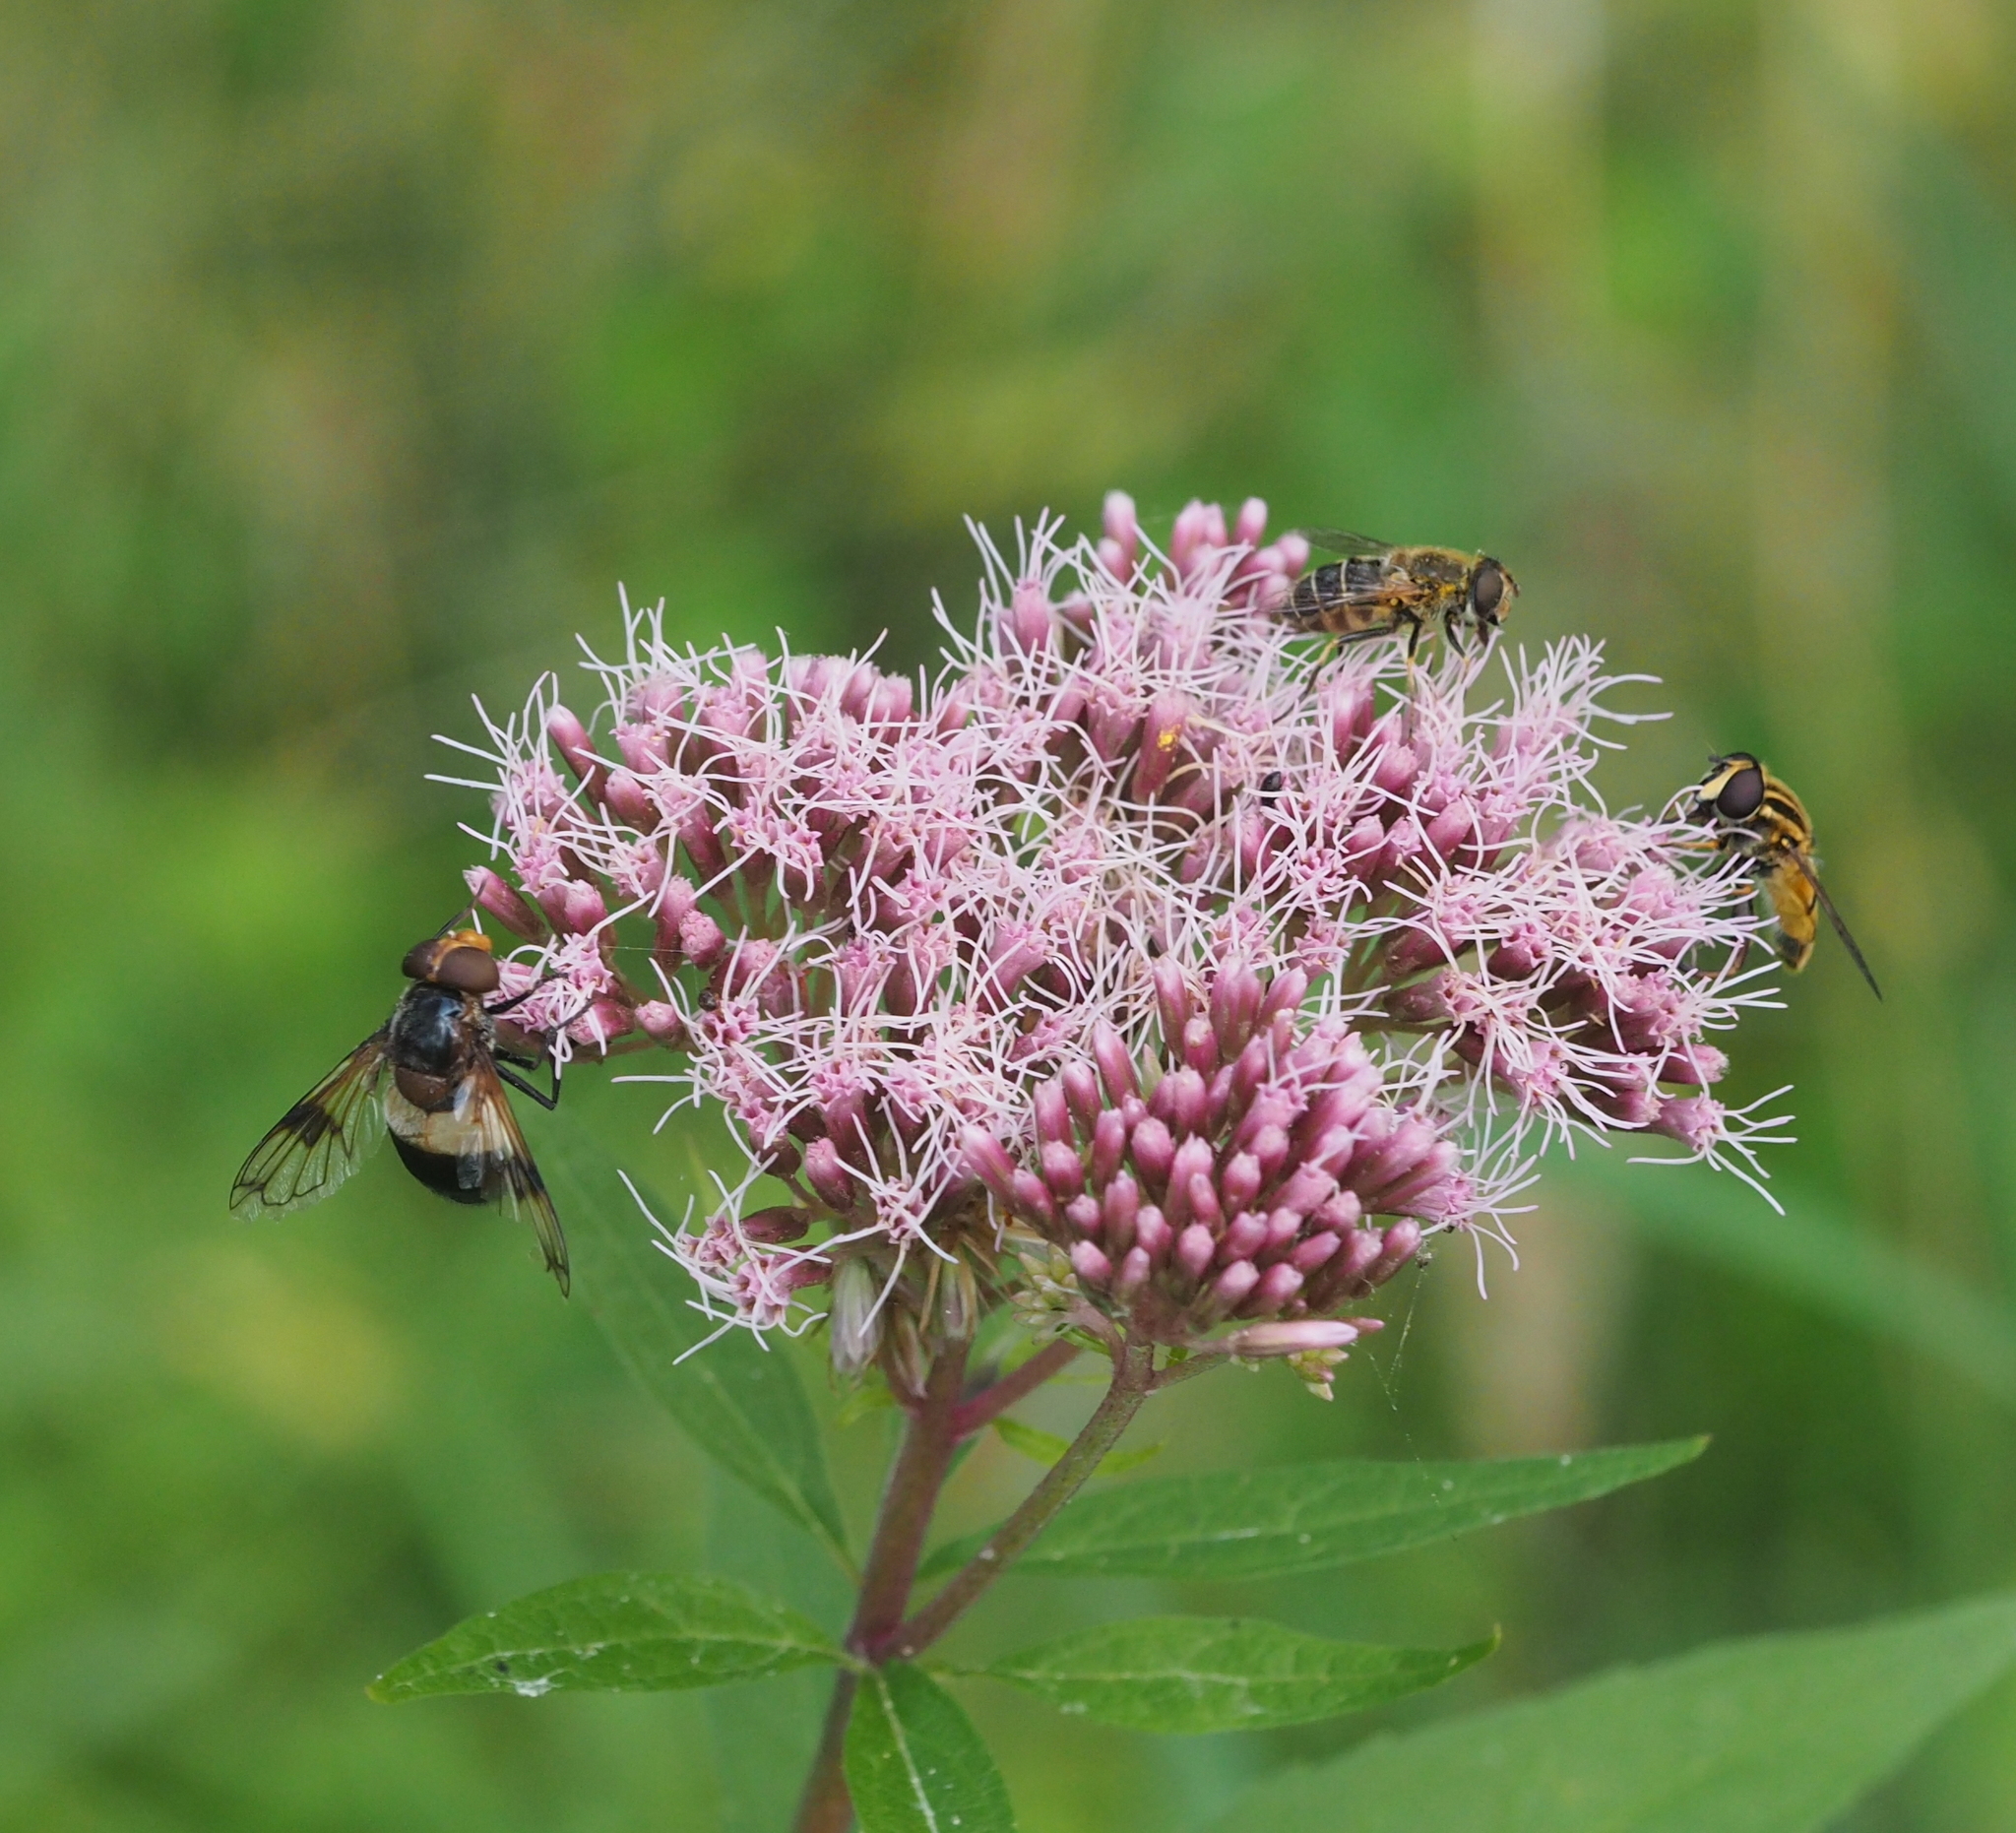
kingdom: Animalia
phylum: Arthropoda
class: Insecta
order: Diptera
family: Syrphidae
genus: Volucella
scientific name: Volucella pellucens
